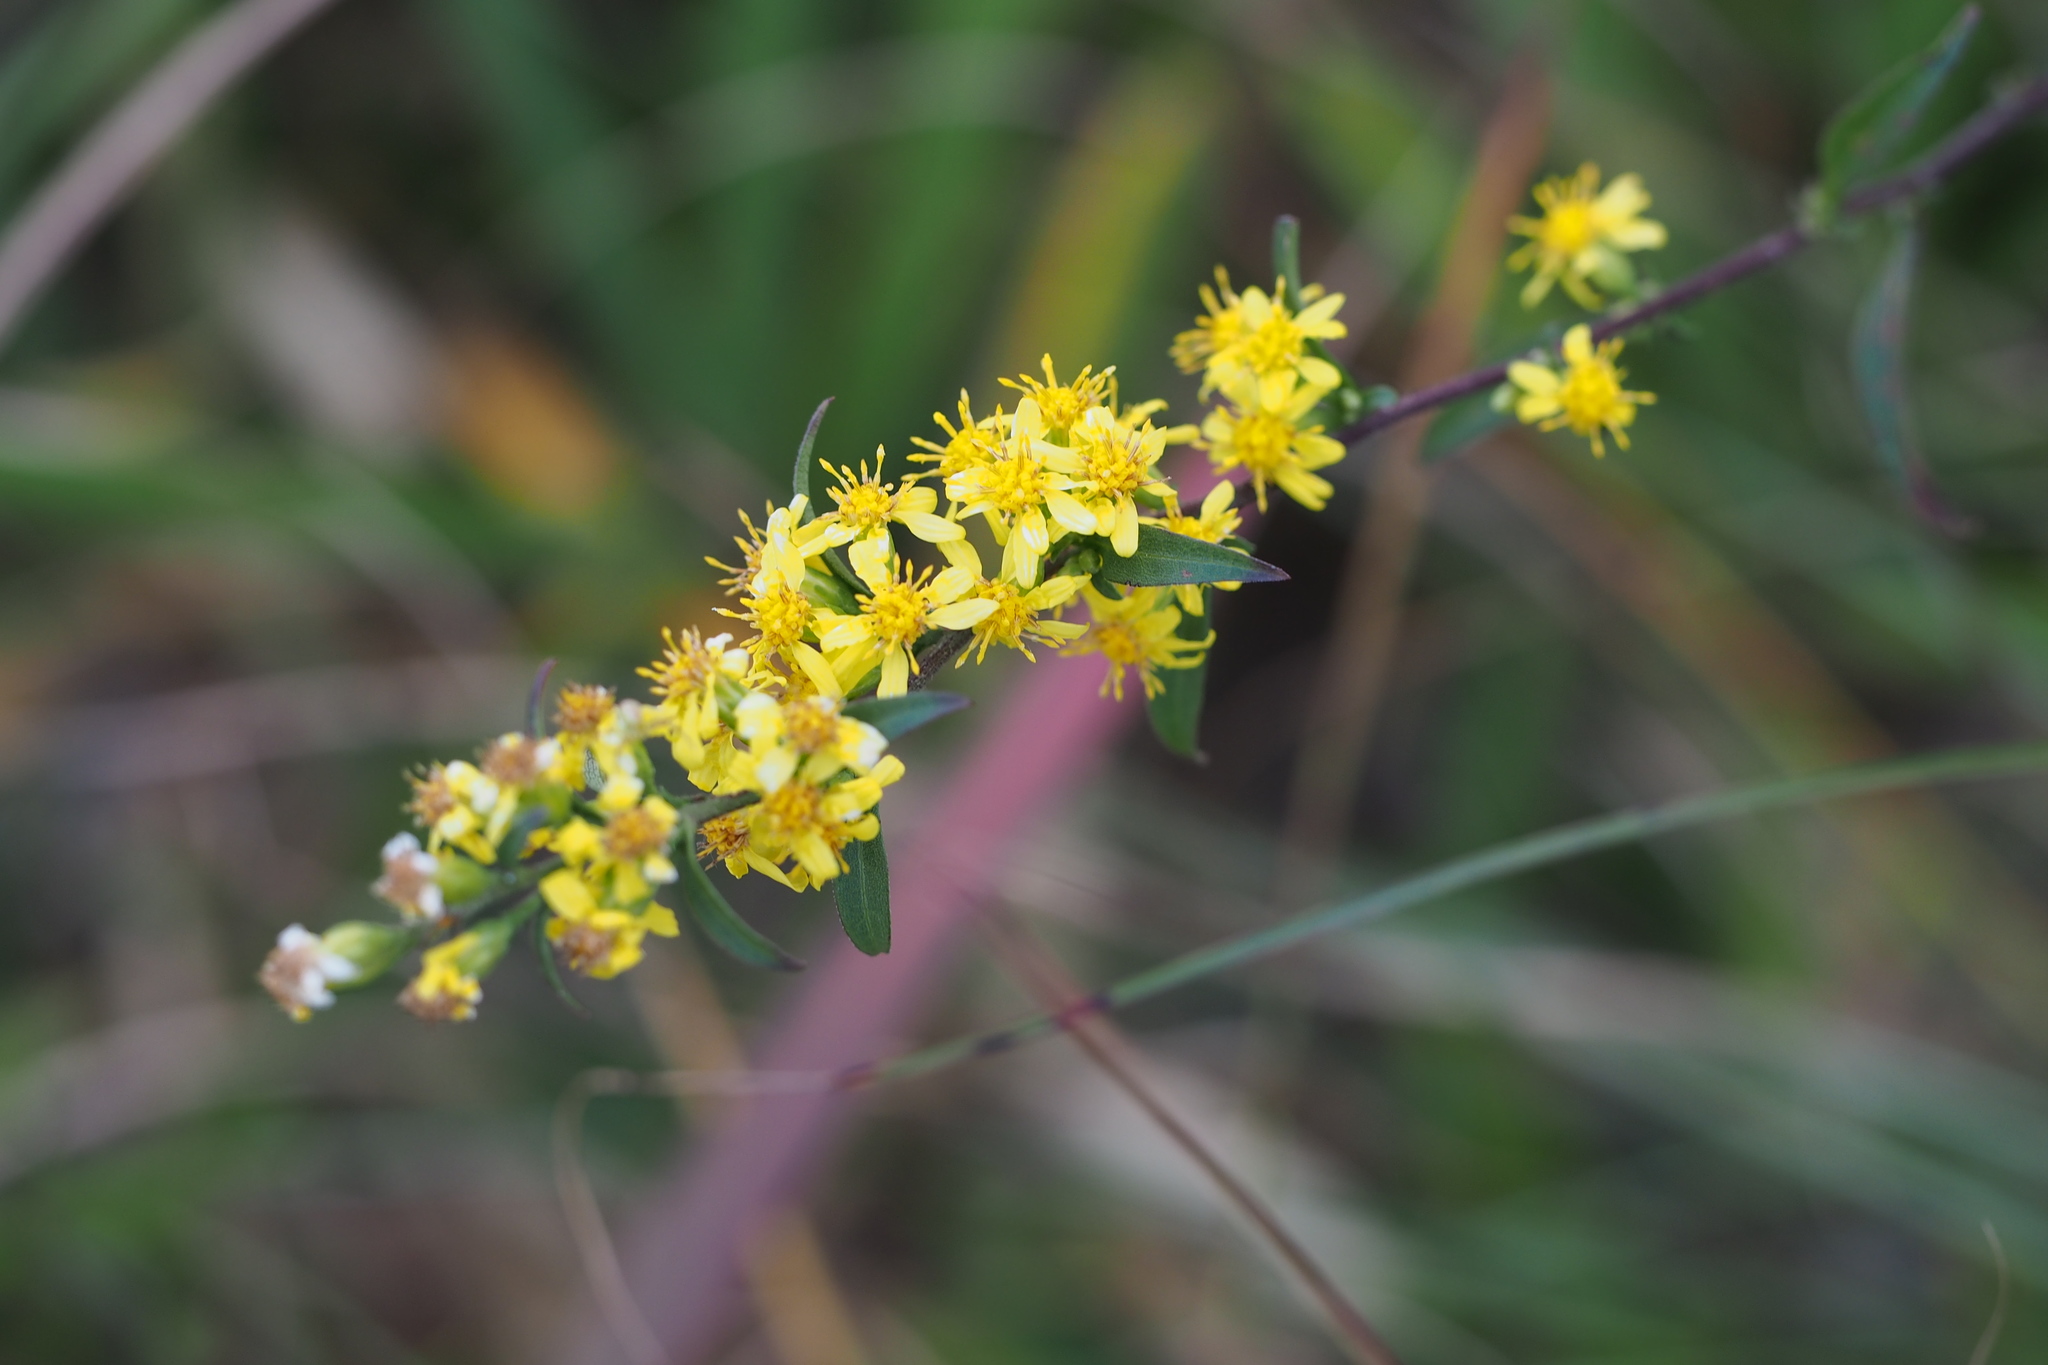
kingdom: Plantae
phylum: Tracheophyta
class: Magnoliopsida
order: Asterales
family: Asteraceae
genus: Solidago
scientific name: Solidago virgaurea
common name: Goldenrod
